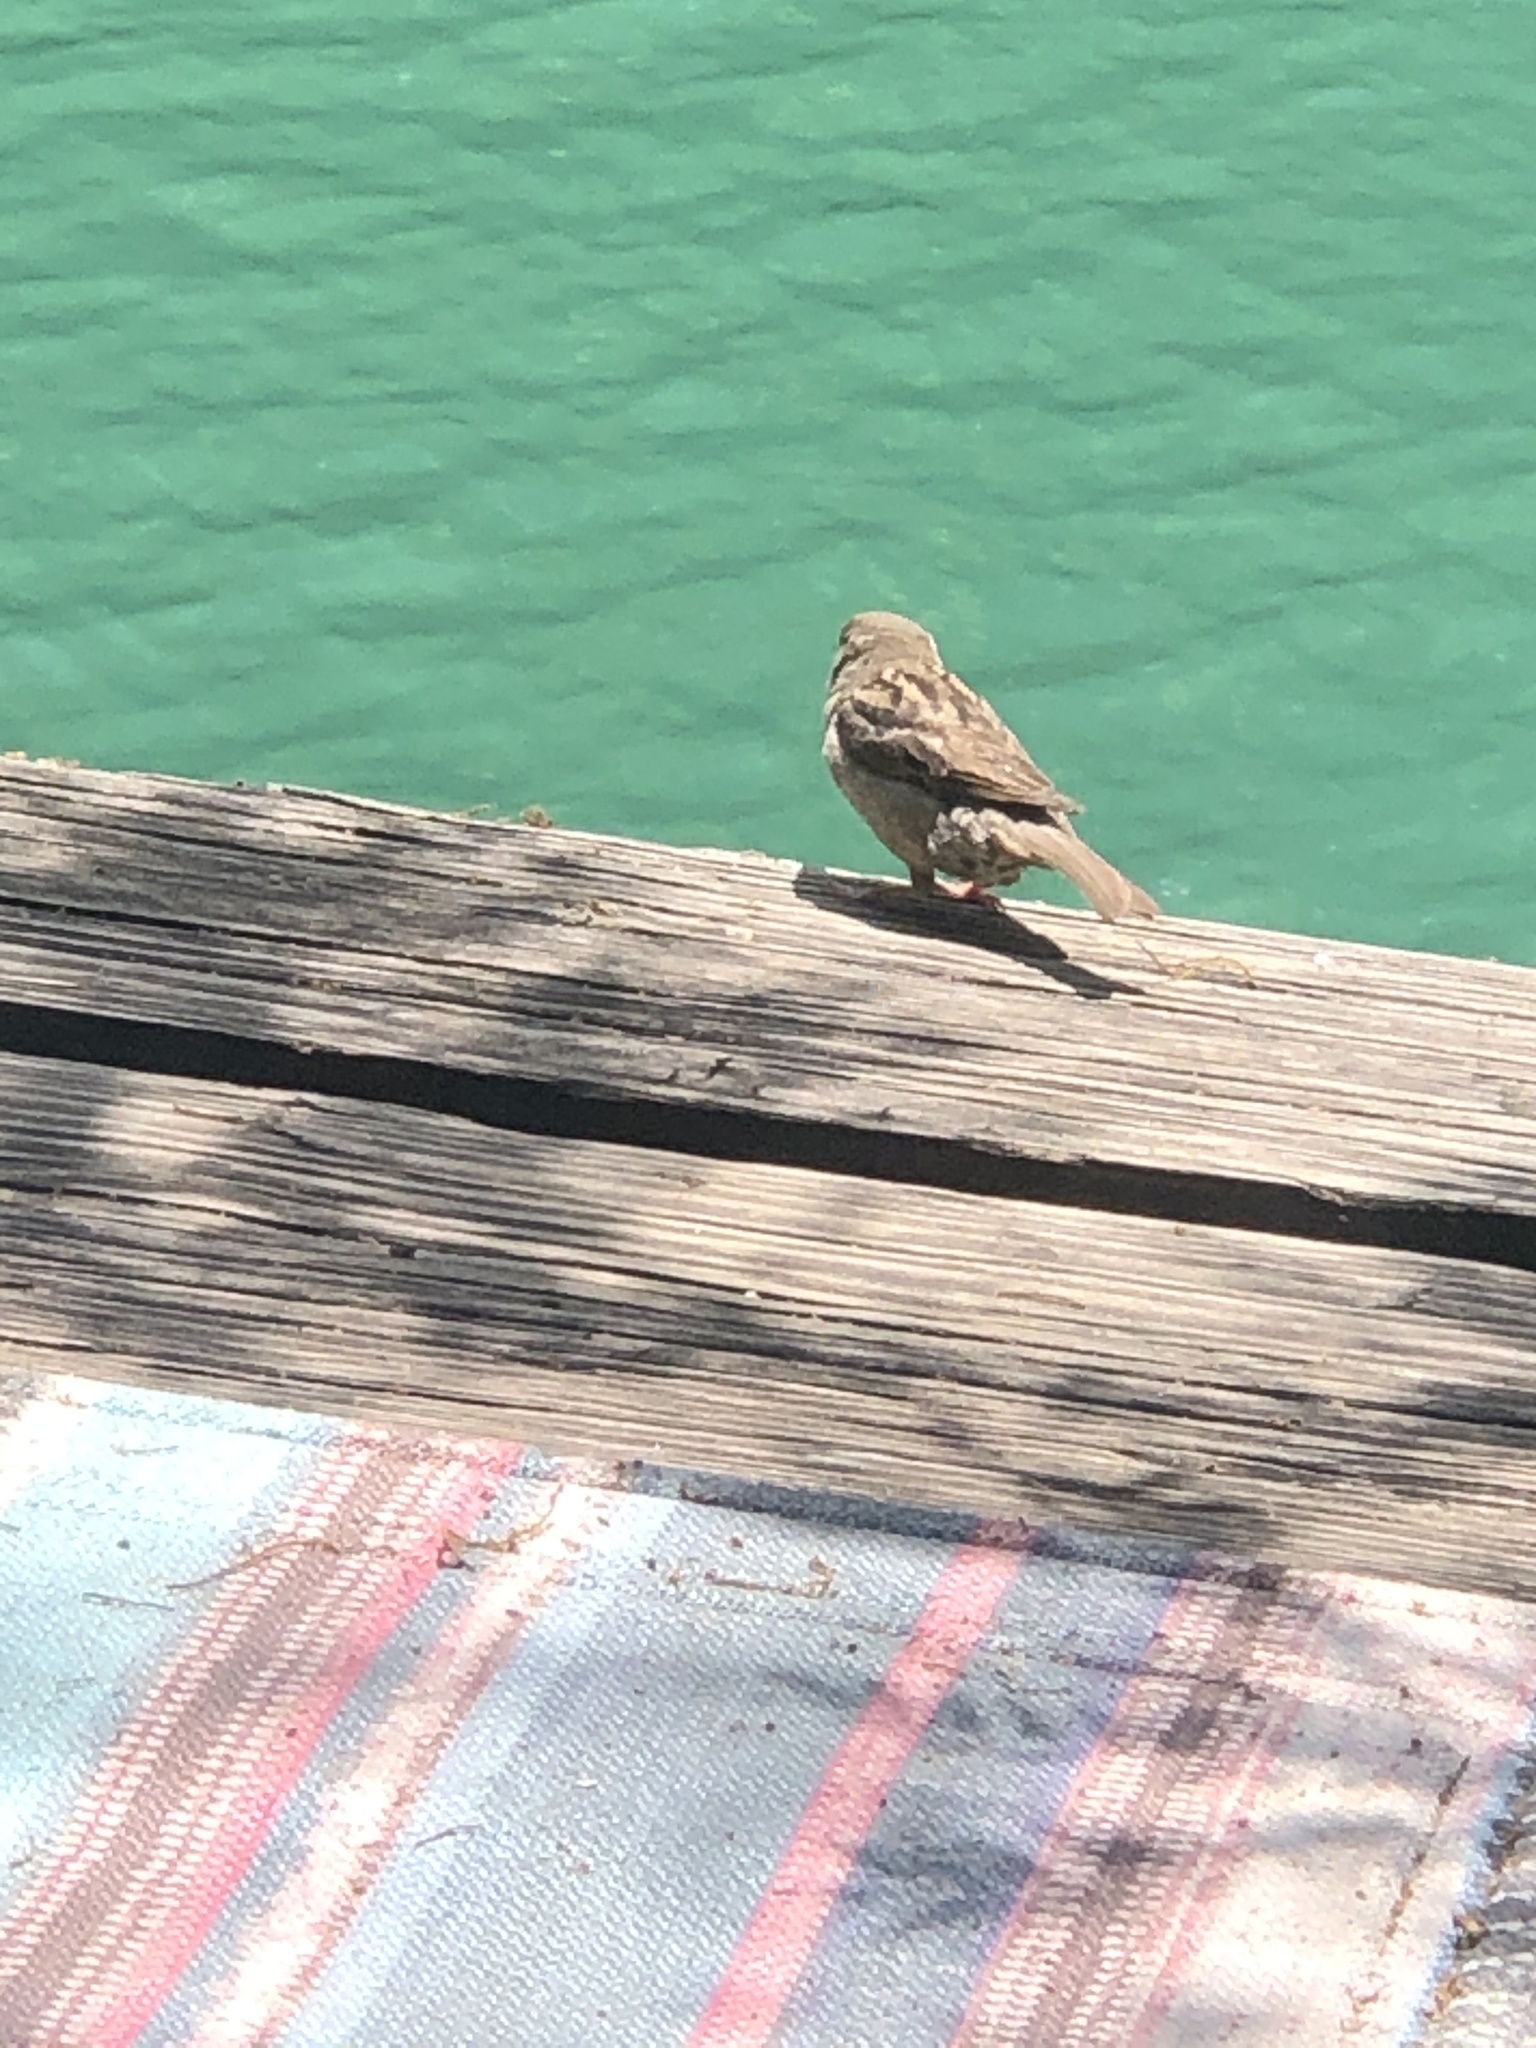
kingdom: Animalia
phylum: Chordata
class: Aves
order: Passeriformes
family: Passeridae
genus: Passer
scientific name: Passer domesticus
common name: House sparrow
